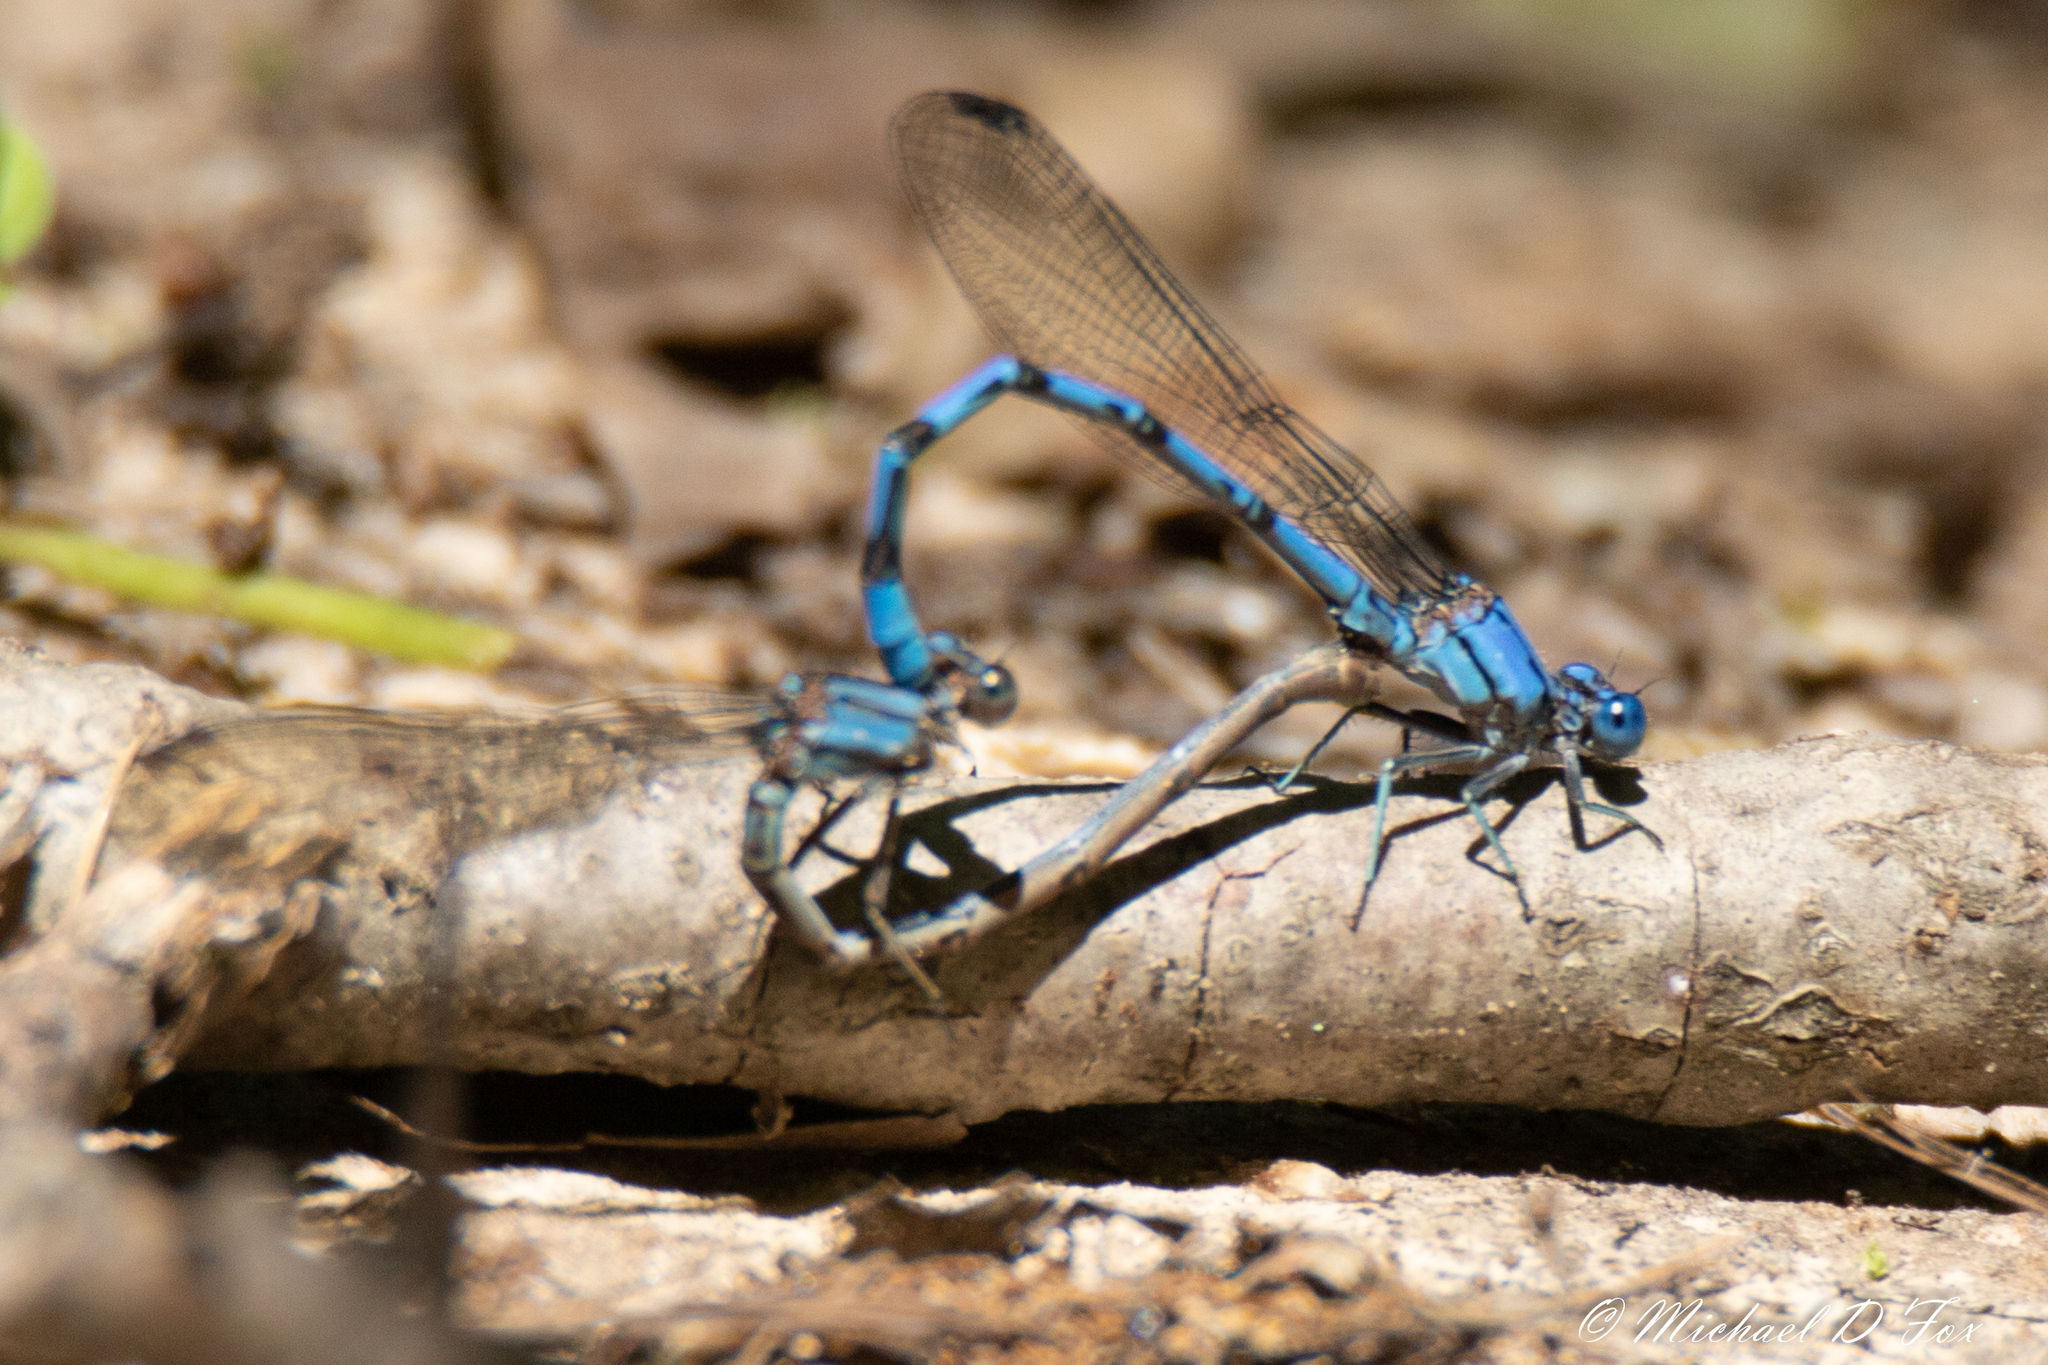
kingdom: Animalia
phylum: Arthropoda
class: Insecta
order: Odonata
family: Coenagrionidae
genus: Argia
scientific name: Argia funebris
